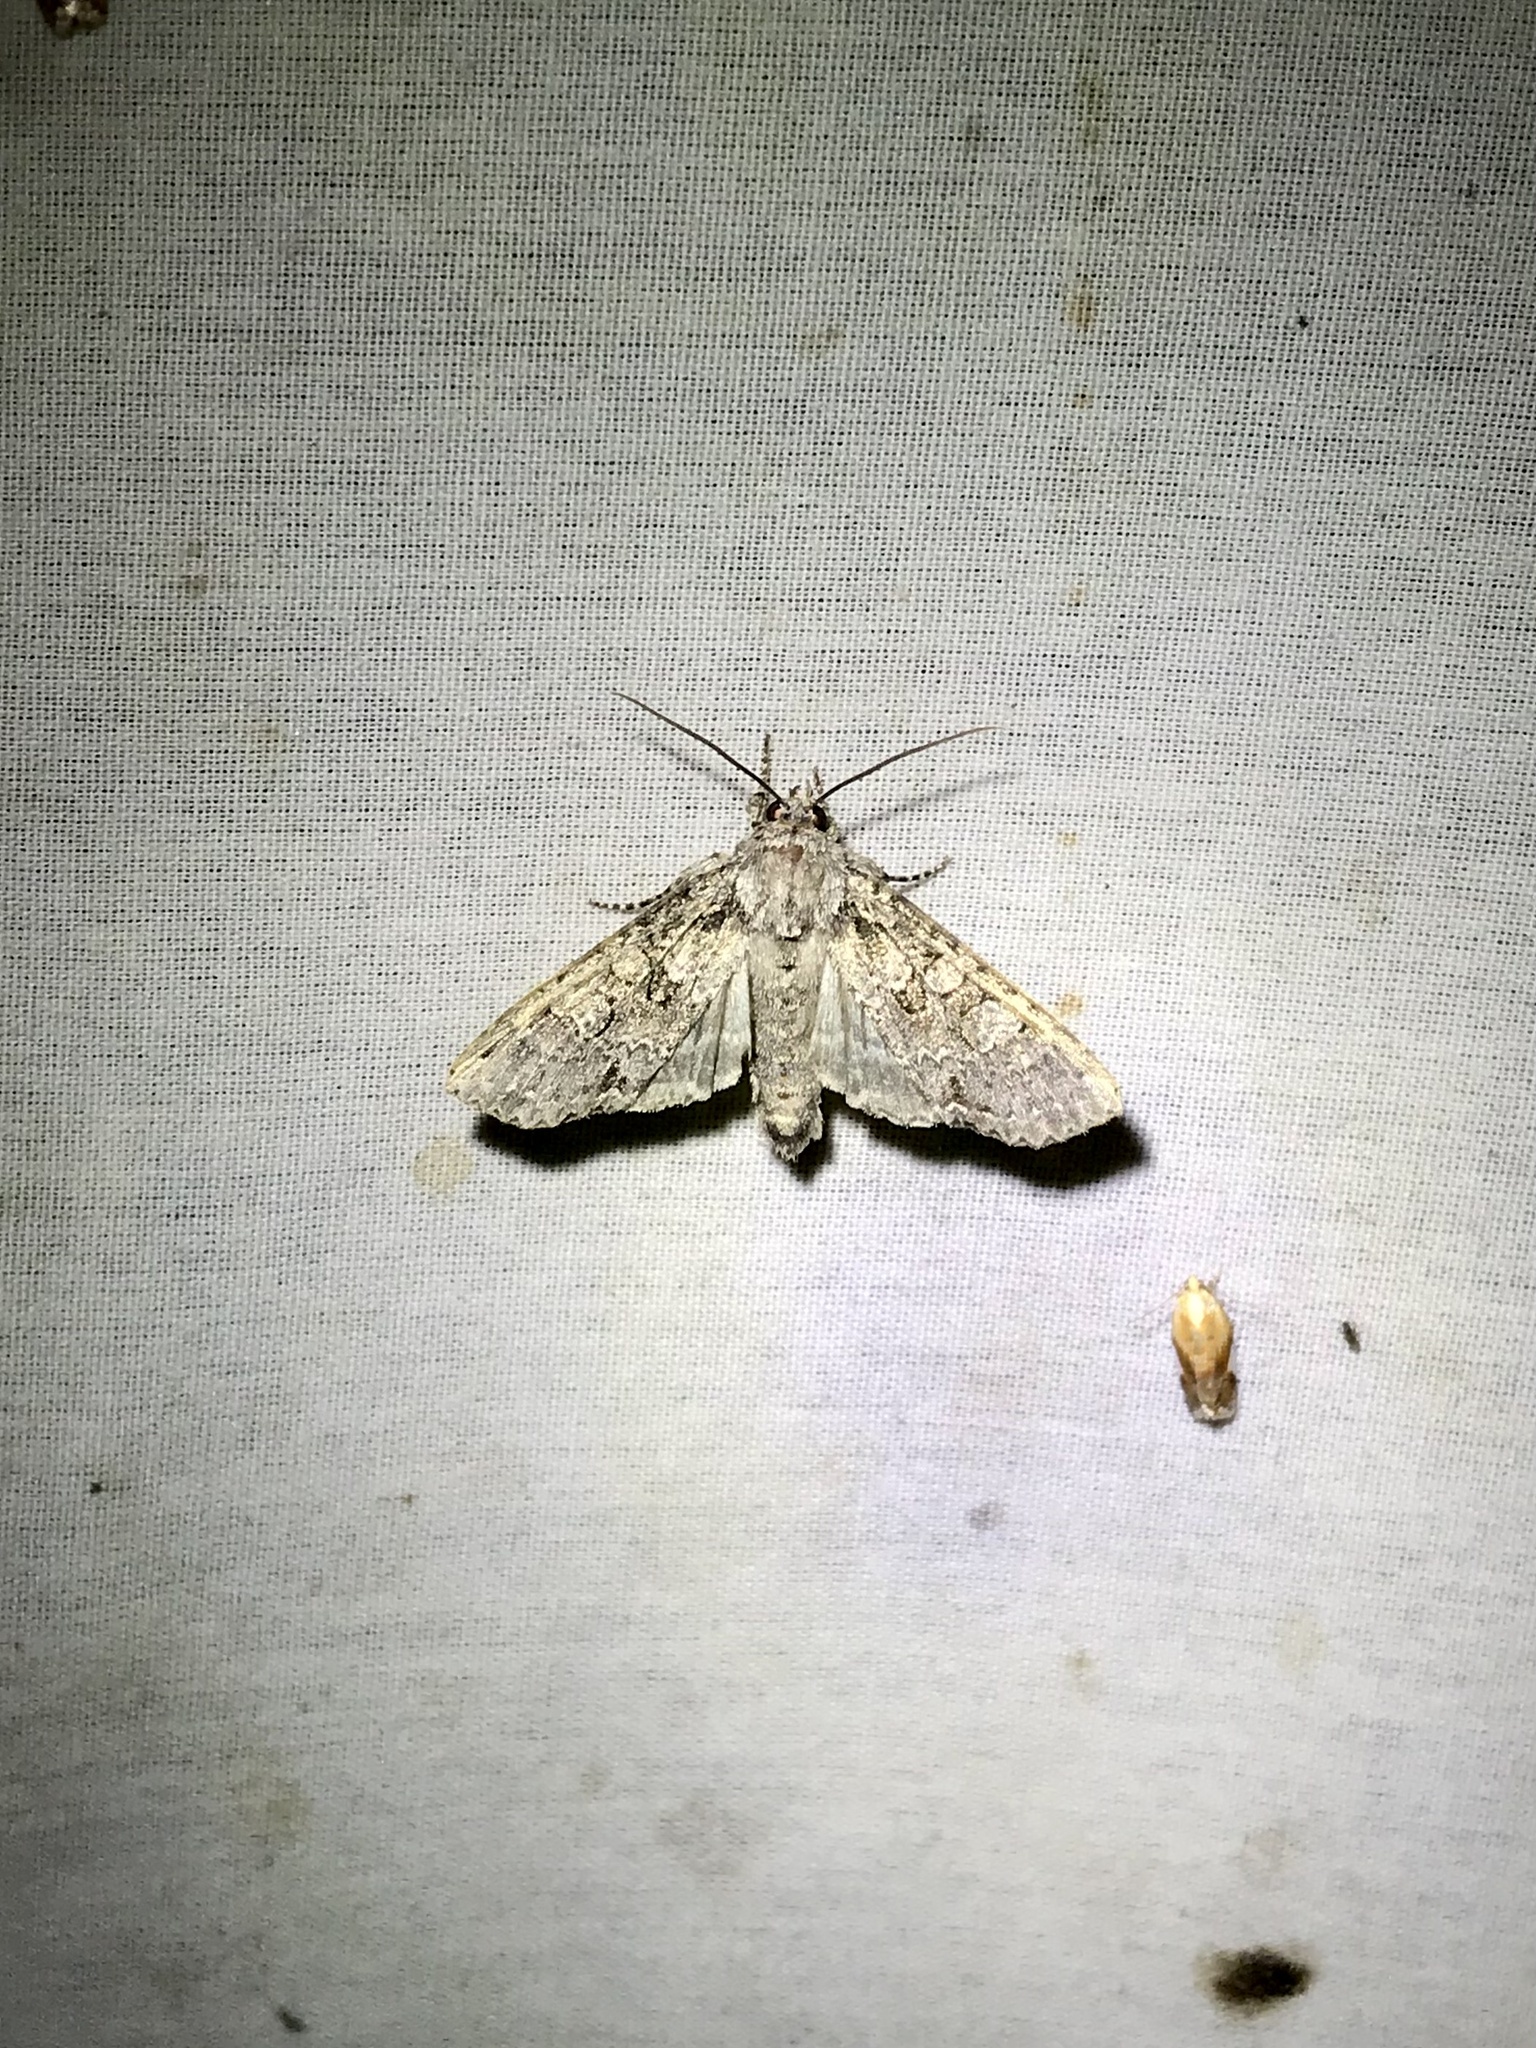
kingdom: Animalia
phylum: Arthropoda
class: Insecta
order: Lepidoptera
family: Noctuidae
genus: Polia
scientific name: Polia imbrifera
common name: Cloudy arches moth
